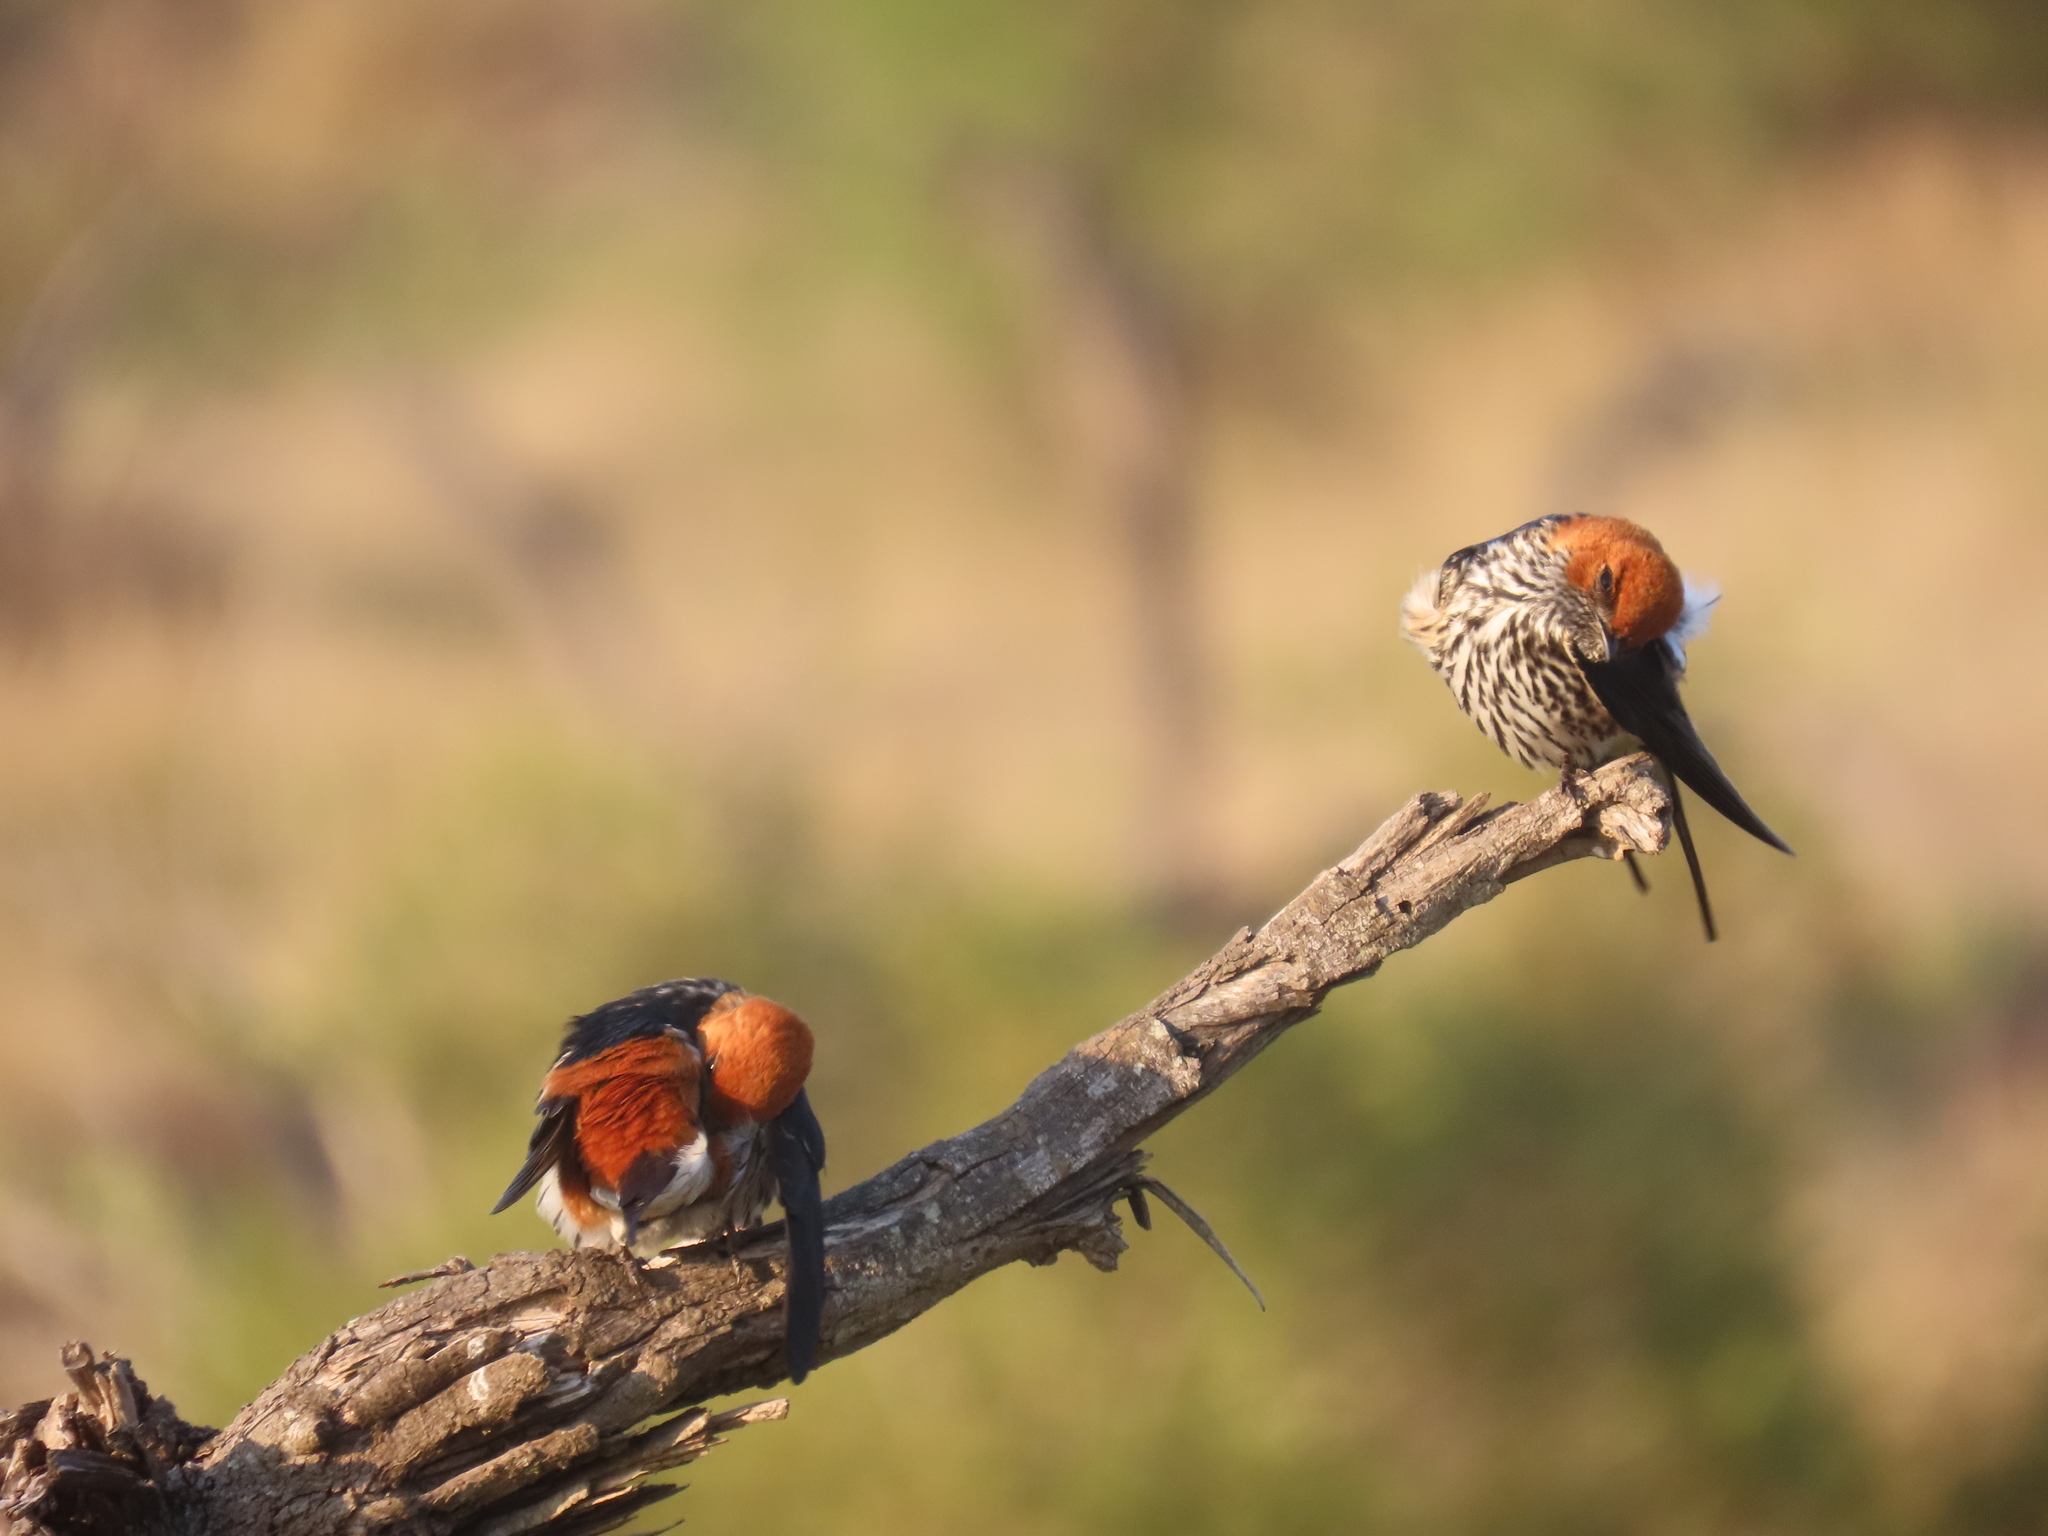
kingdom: Animalia
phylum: Chordata
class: Aves
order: Passeriformes
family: Hirundinidae
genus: Cecropis
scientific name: Cecropis abyssinica
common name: Lesser striped-swallow
